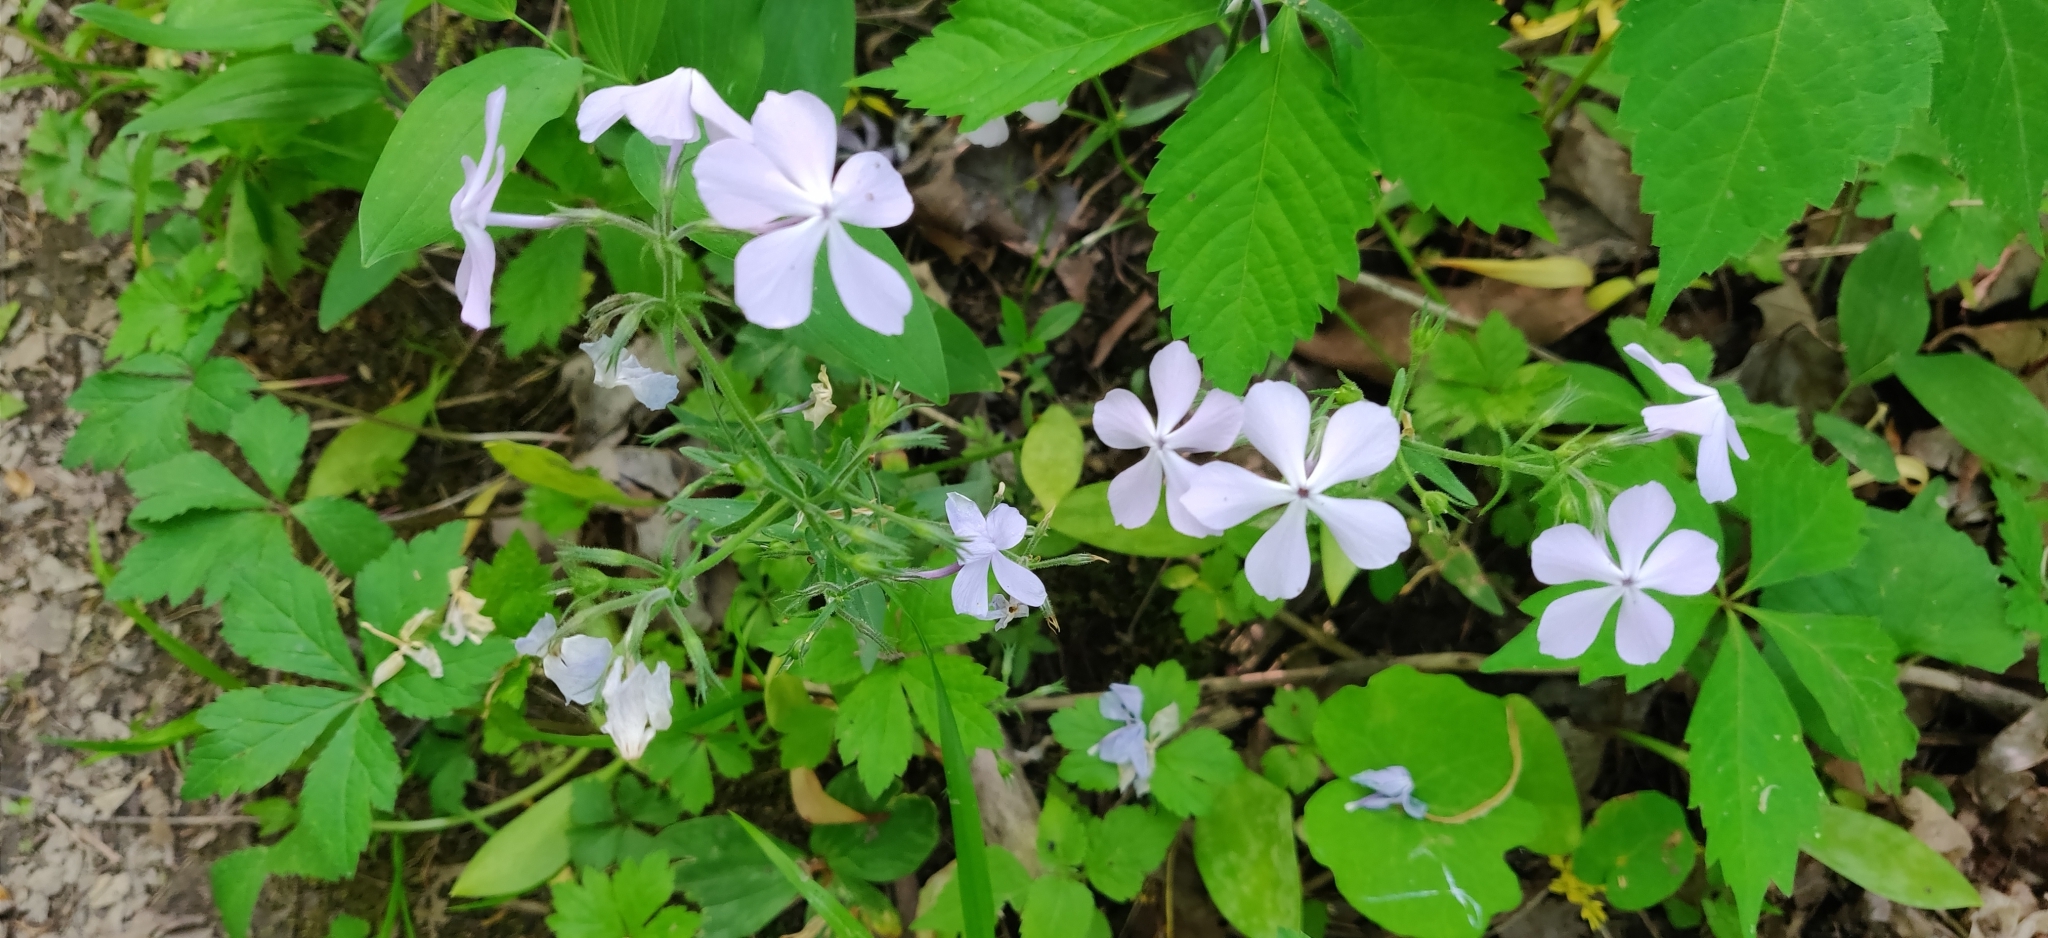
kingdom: Plantae
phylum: Tracheophyta
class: Magnoliopsida
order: Ericales
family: Polemoniaceae
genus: Phlox
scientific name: Phlox divaricata
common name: Blue phlox
